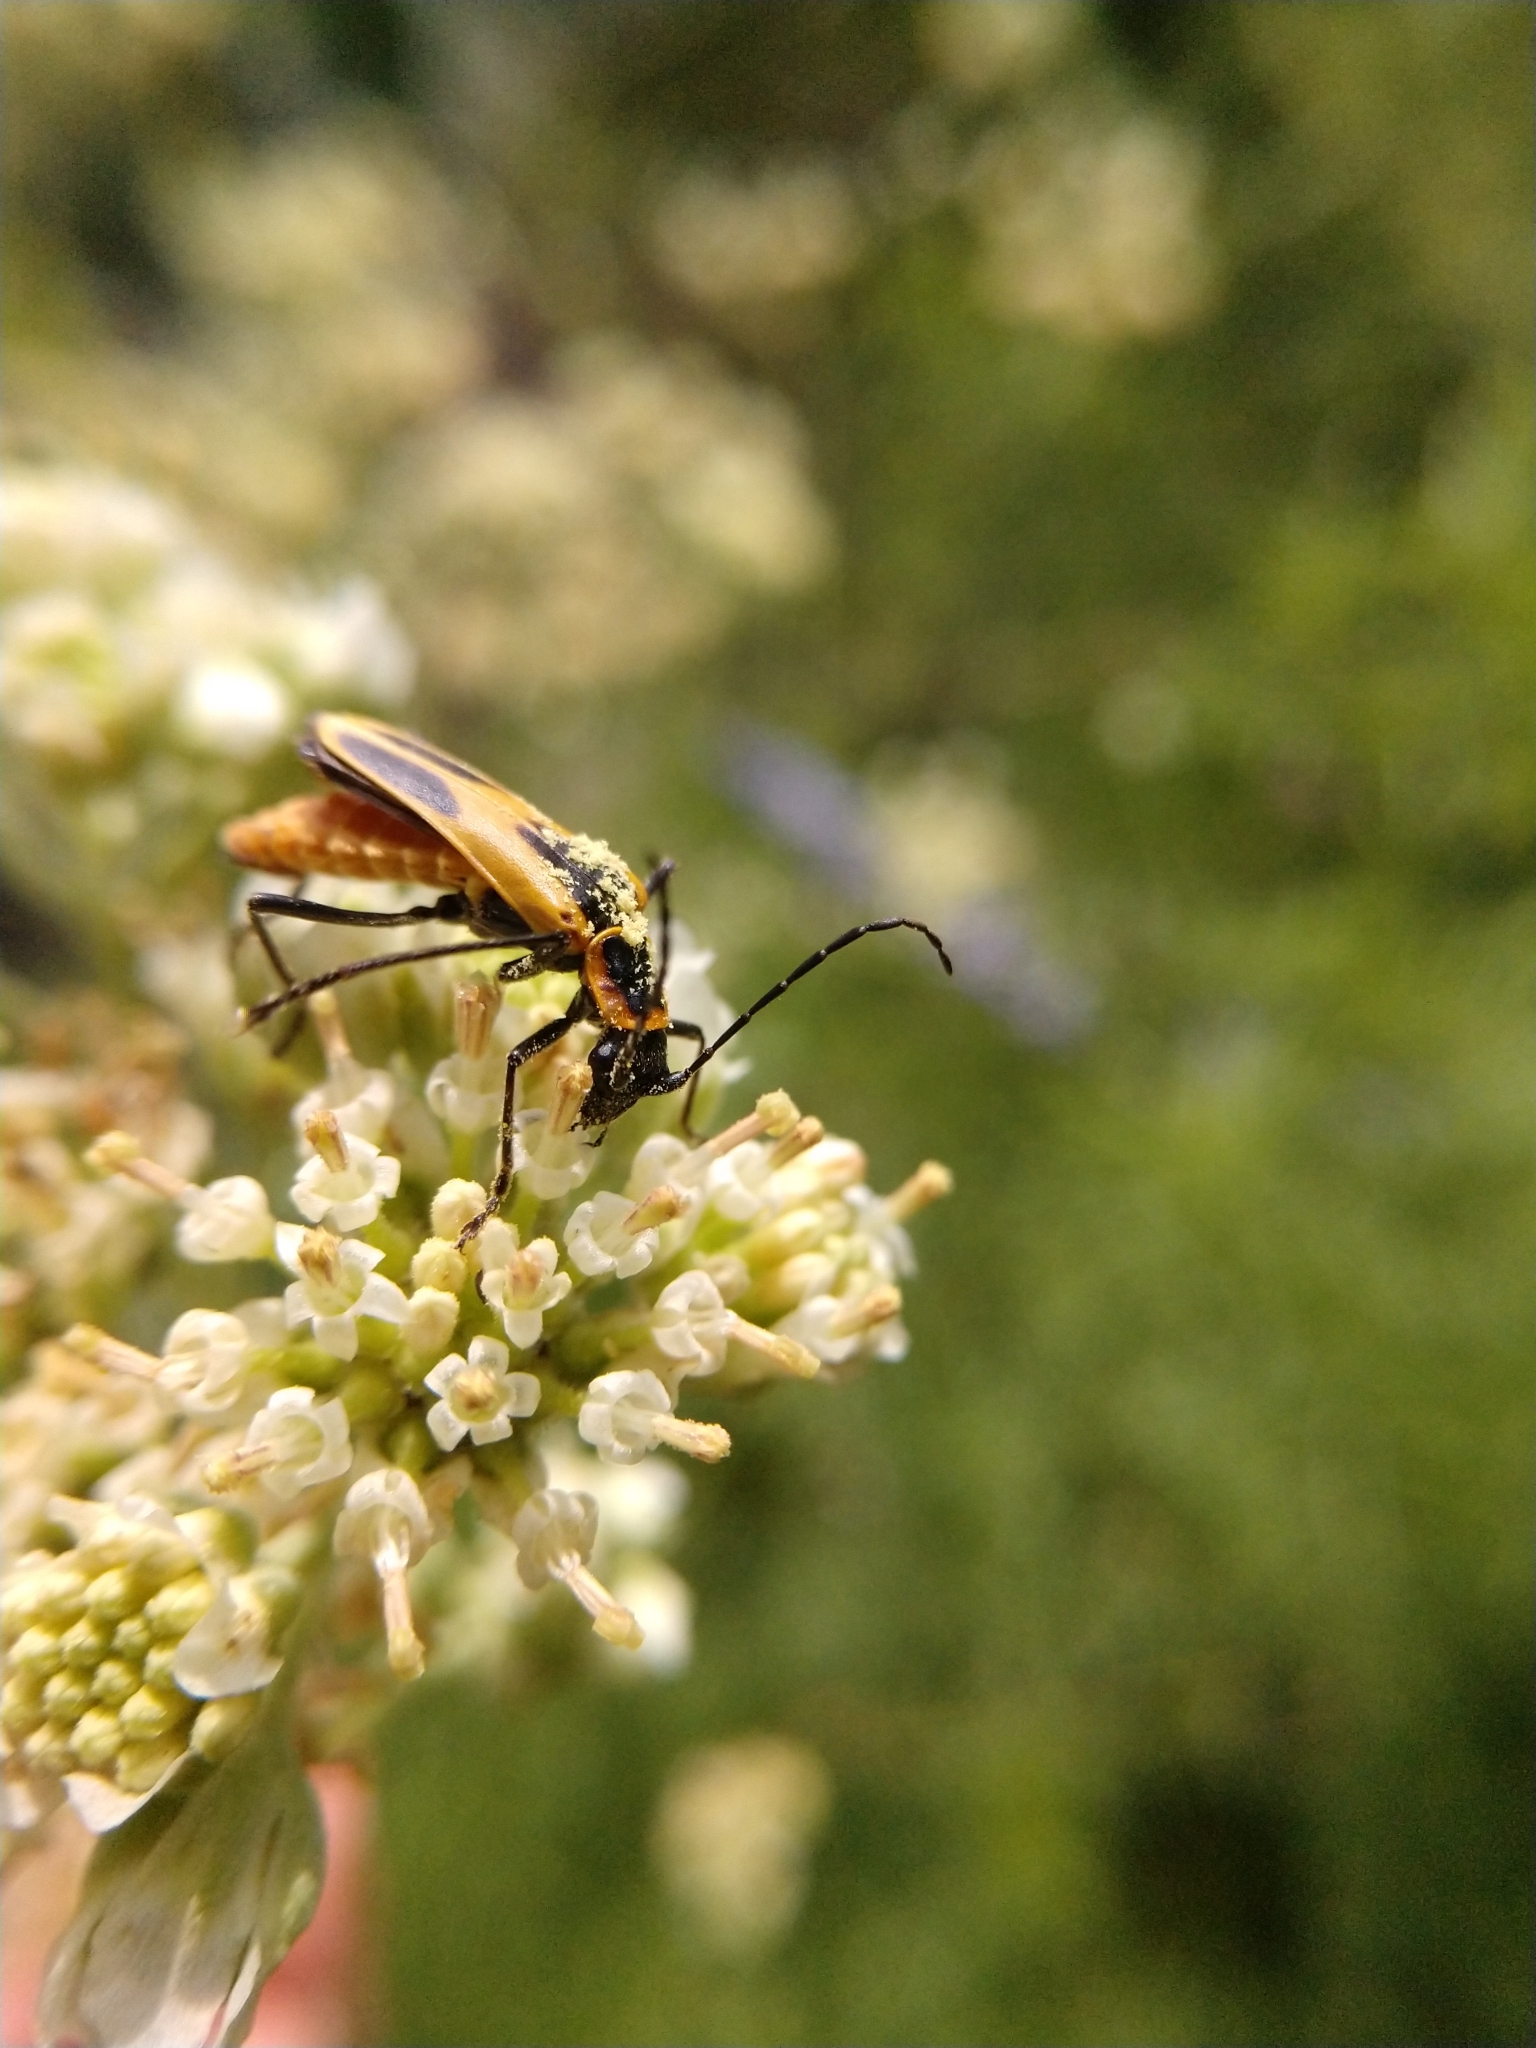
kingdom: Animalia
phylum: Arthropoda
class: Insecta
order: Coleoptera
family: Cantharidae
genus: Chauliognathus
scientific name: Chauliognathus scutellaris
